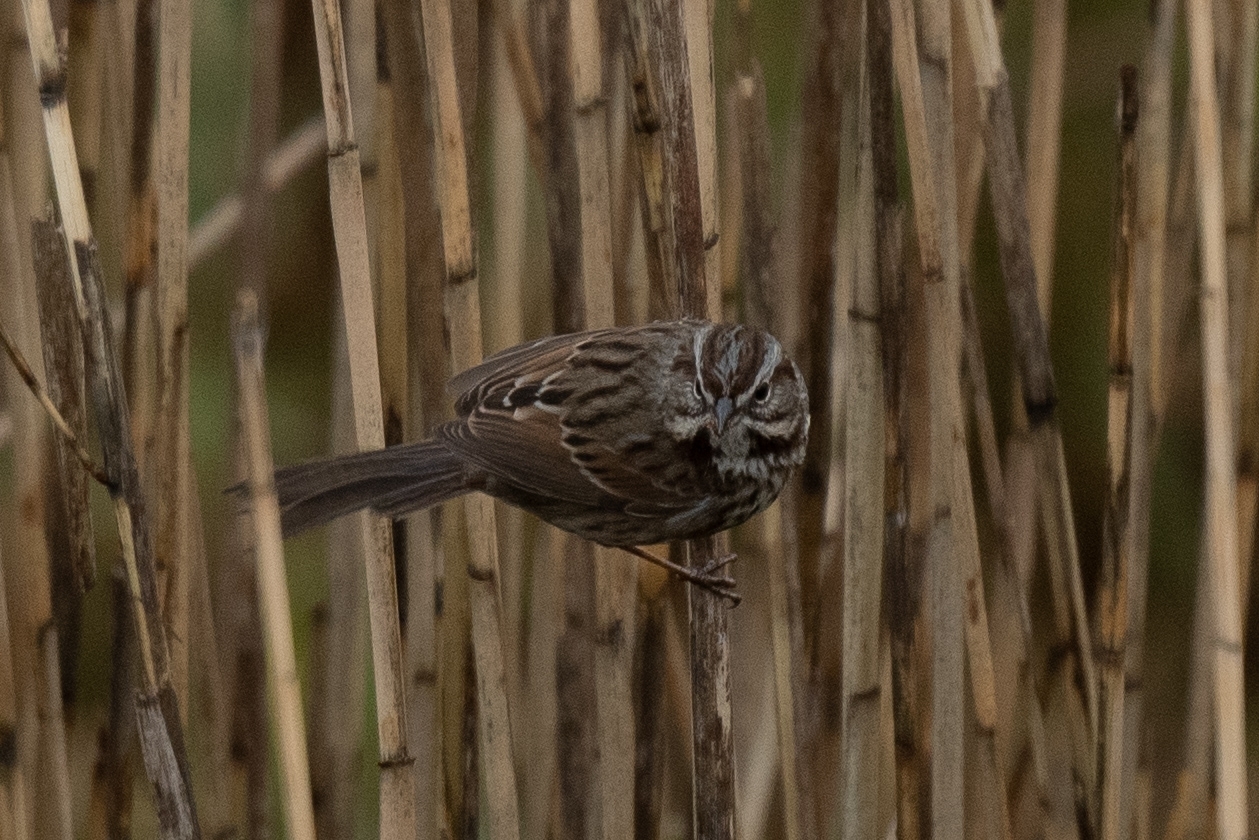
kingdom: Animalia
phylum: Chordata
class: Aves
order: Passeriformes
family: Passerellidae
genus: Melospiza
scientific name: Melospiza melodia
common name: Song sparrow
